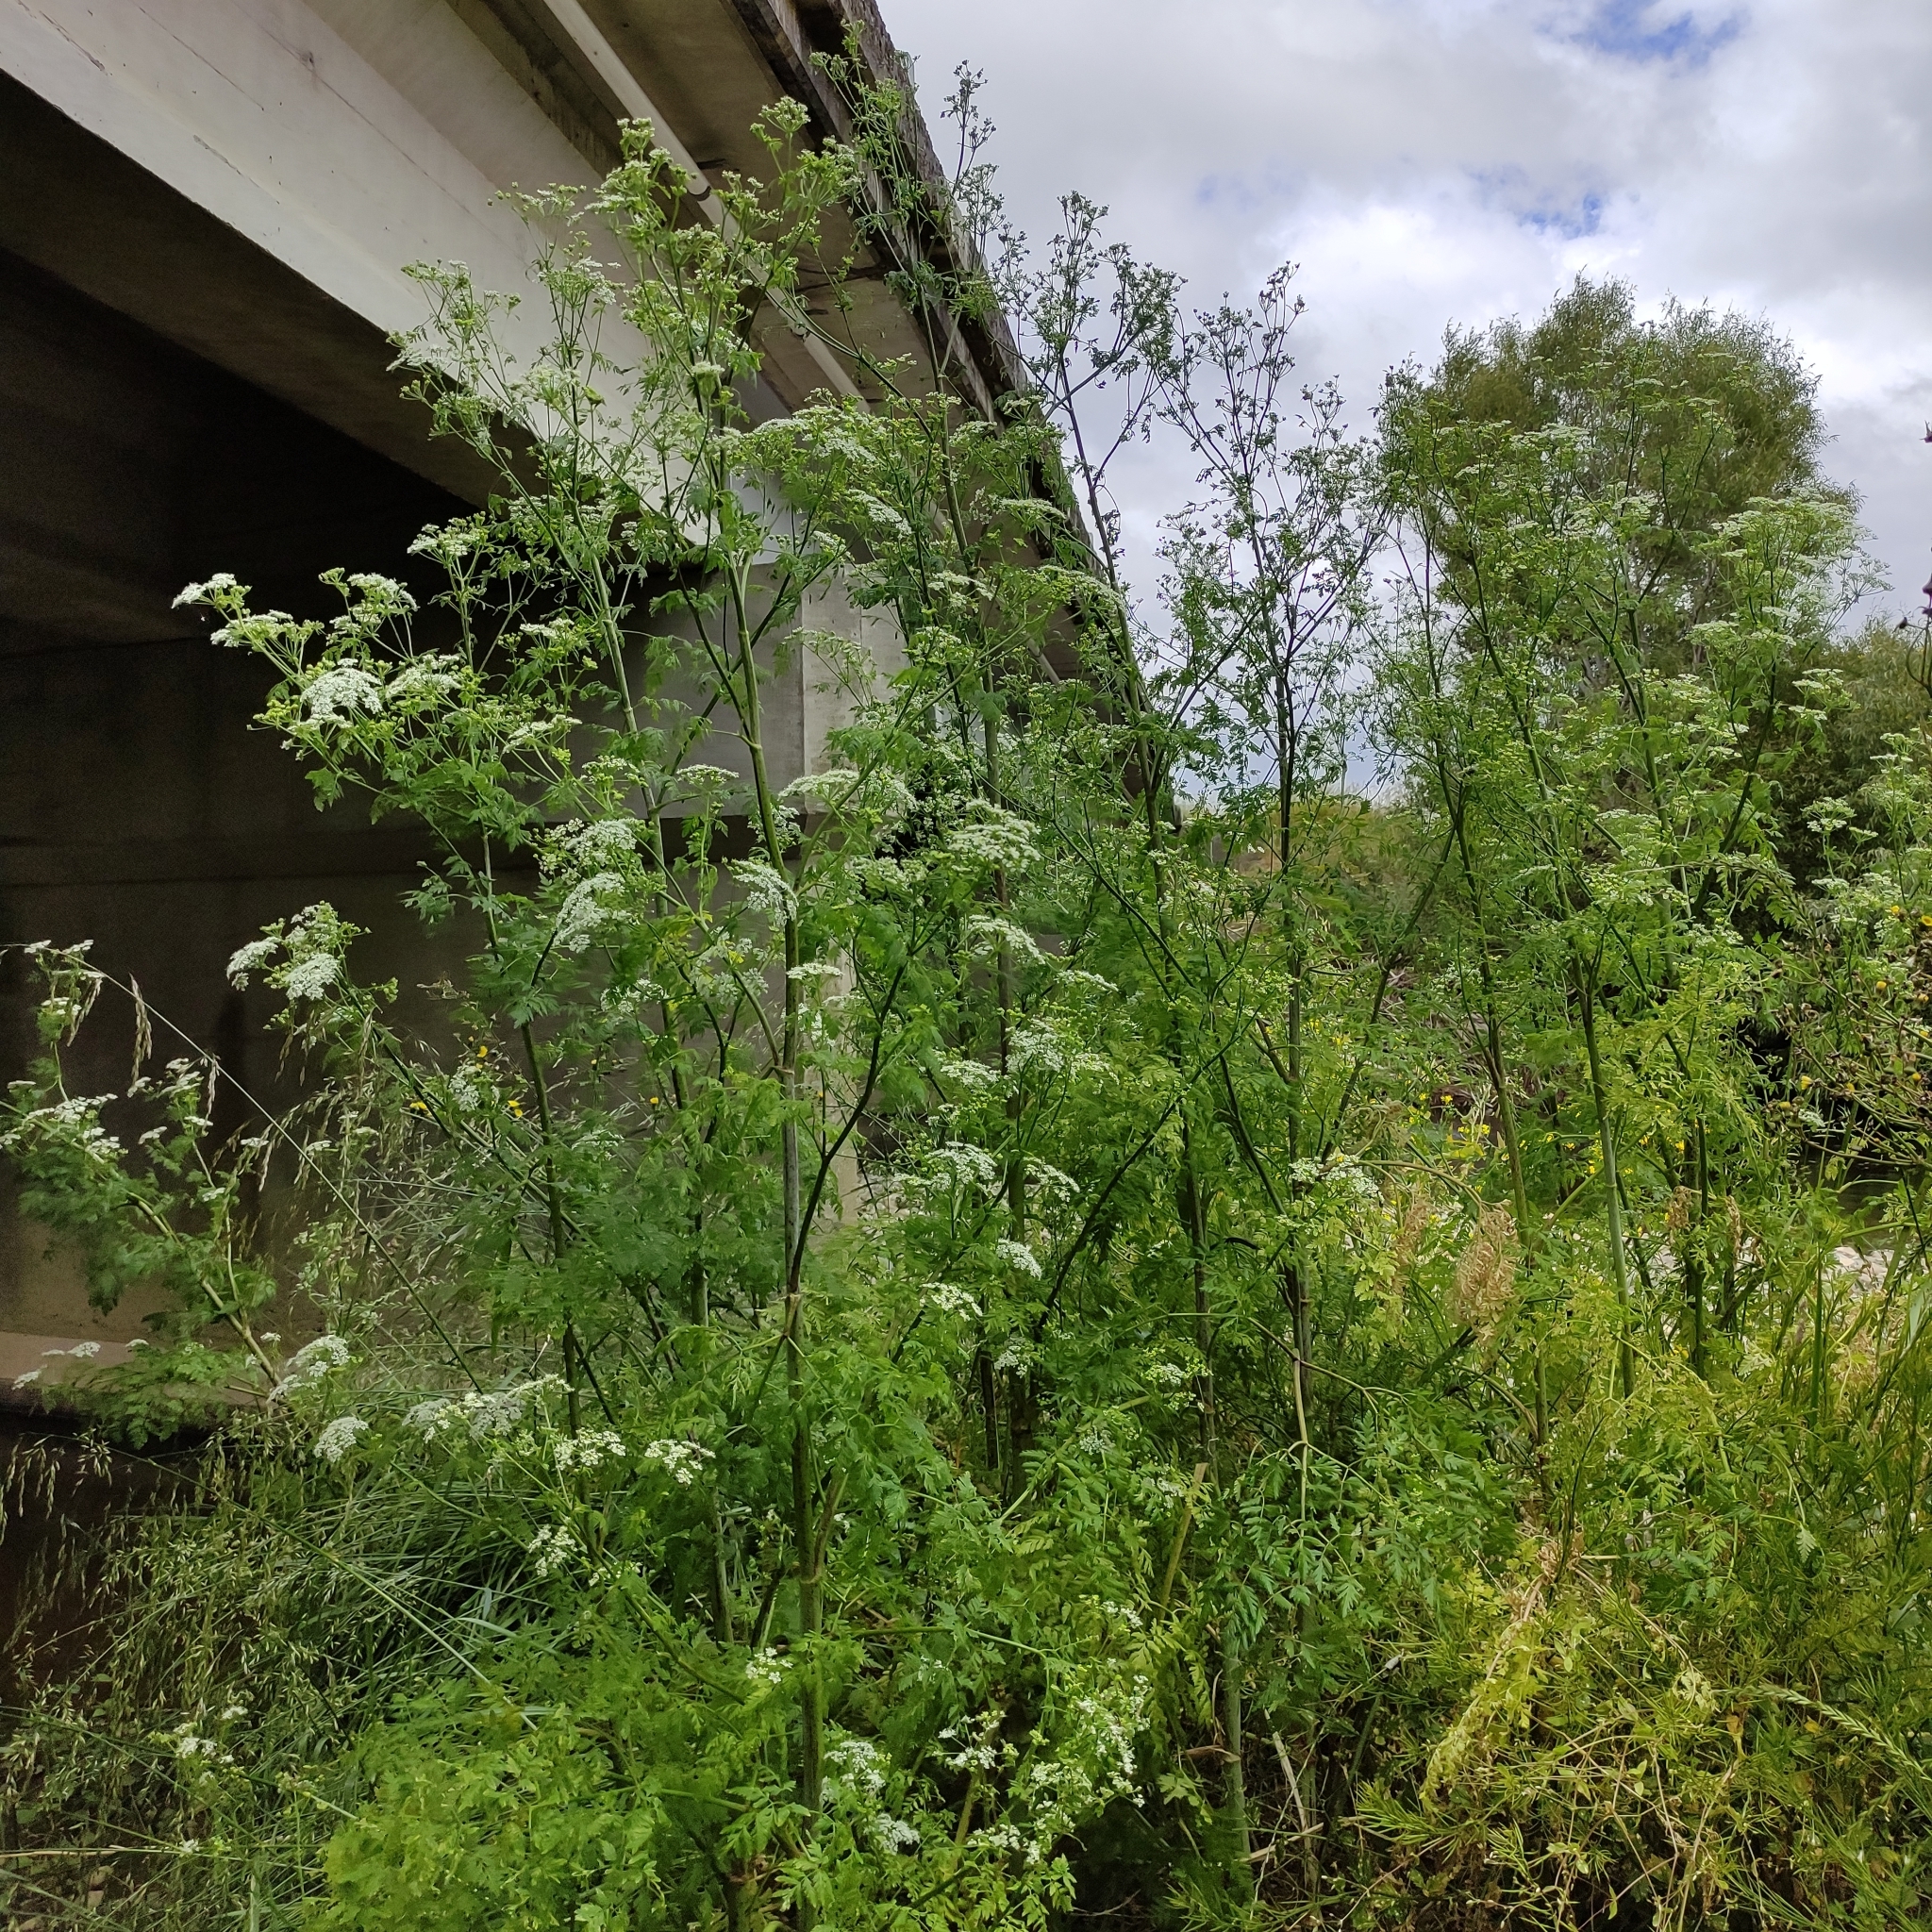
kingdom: Plantae
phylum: Tracheophyta
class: Magnoliopsida
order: Apiales
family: Apiaceae
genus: Conium
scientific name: Conium maculatum
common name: Hemlock
